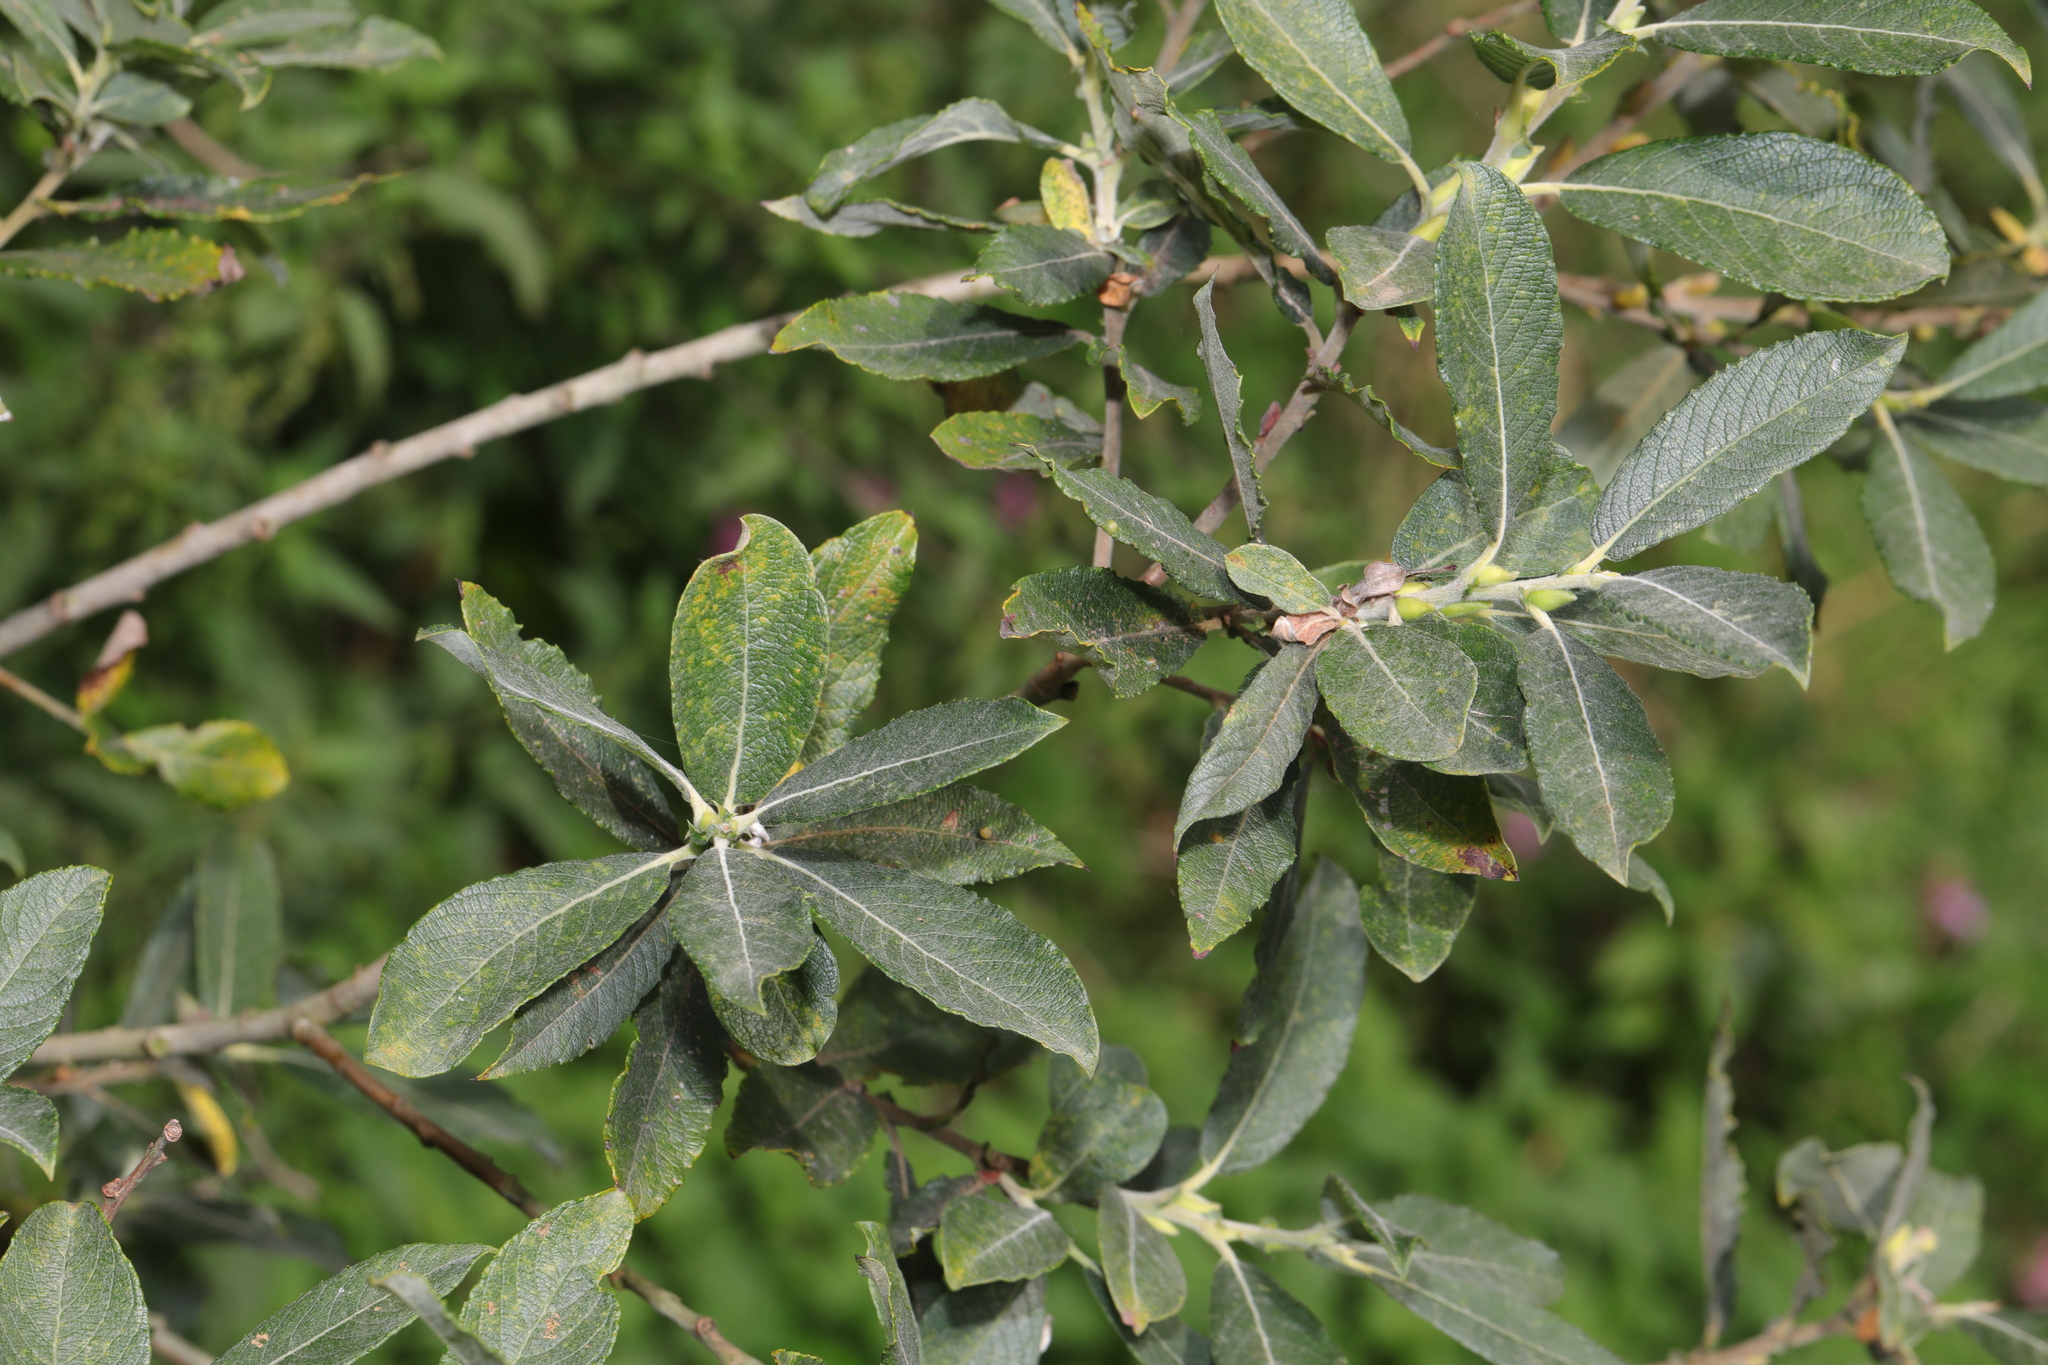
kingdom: Plantae
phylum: Tracheophyta
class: Magnoliopsida
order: Malpighiales
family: Salicaceae
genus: Salix
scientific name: Salix cinerea
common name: Common sallow
